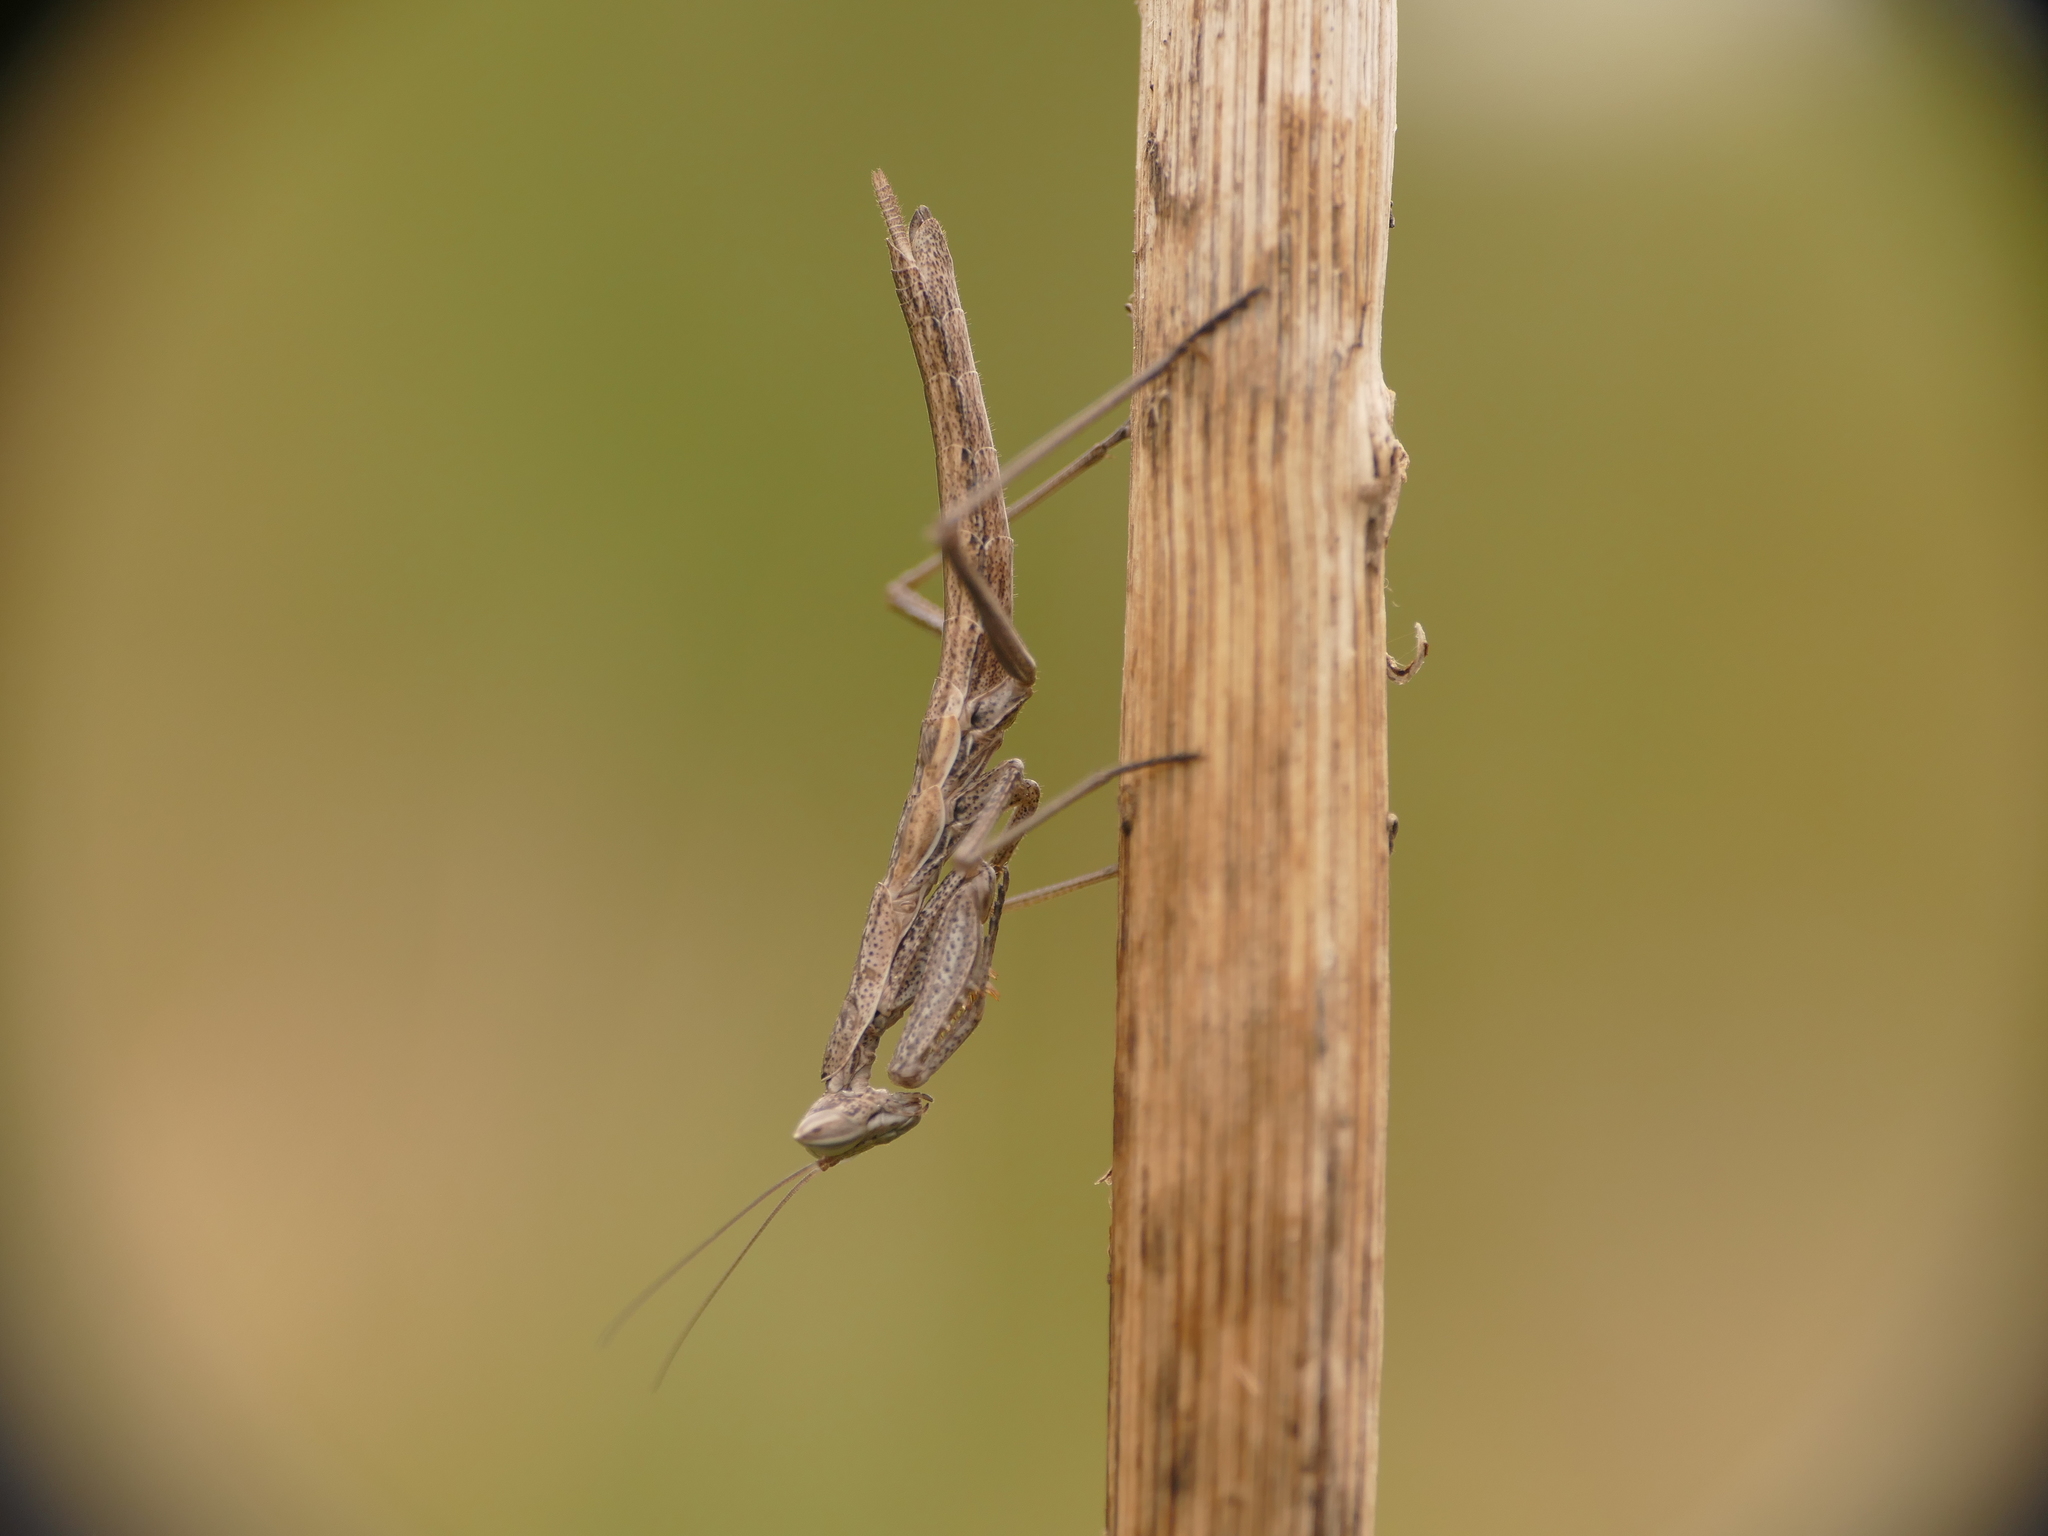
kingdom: Animalia
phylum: Arthropoda
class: Insecta
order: Mantodea
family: Amelidae
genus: Ameles
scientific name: Ameles picteti
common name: Pictet's dwarf mantis
